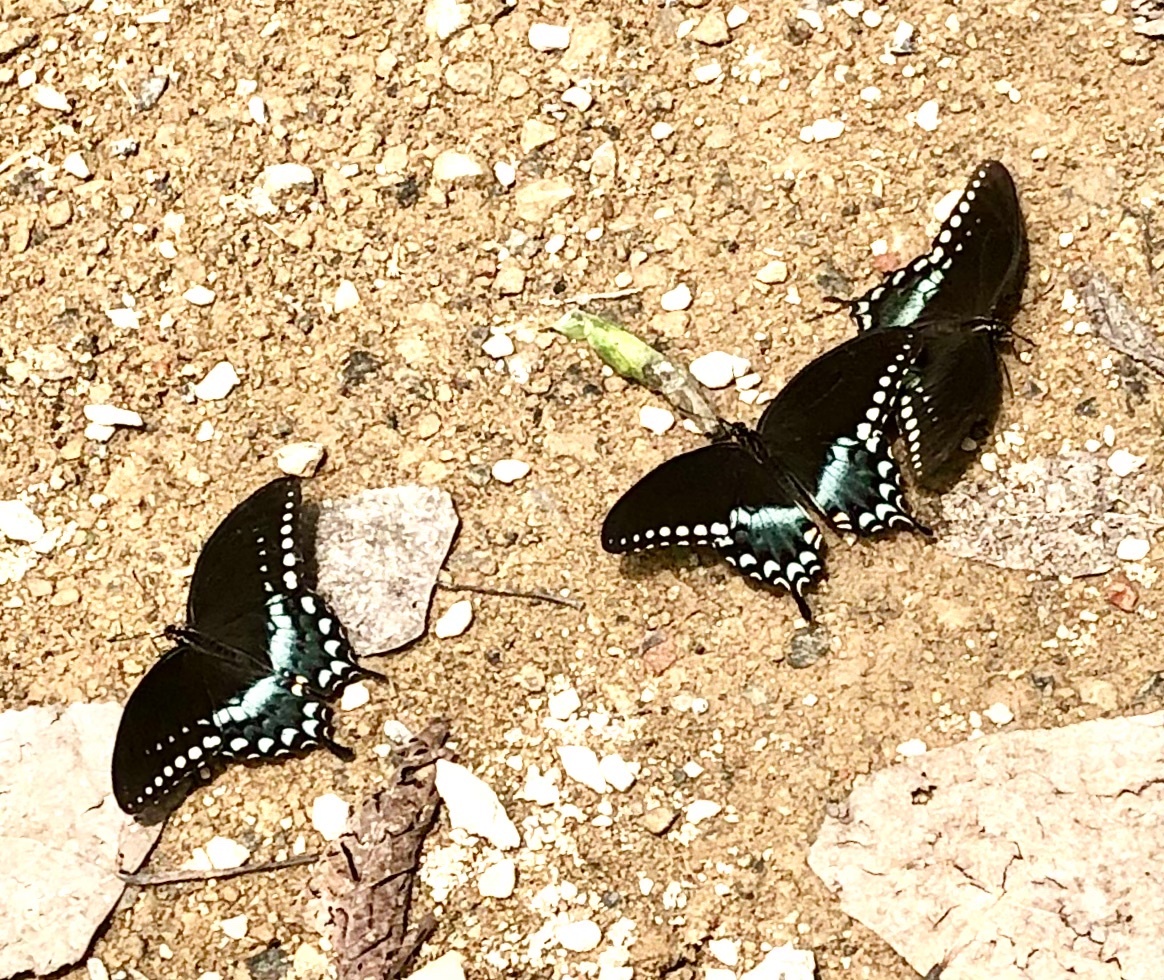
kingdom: Animalia
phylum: Arthropoda
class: Insecta
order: Lepidoptera
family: Papilionidae
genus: Papilio
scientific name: Papilio troilus
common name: Spicebush swallowtail
